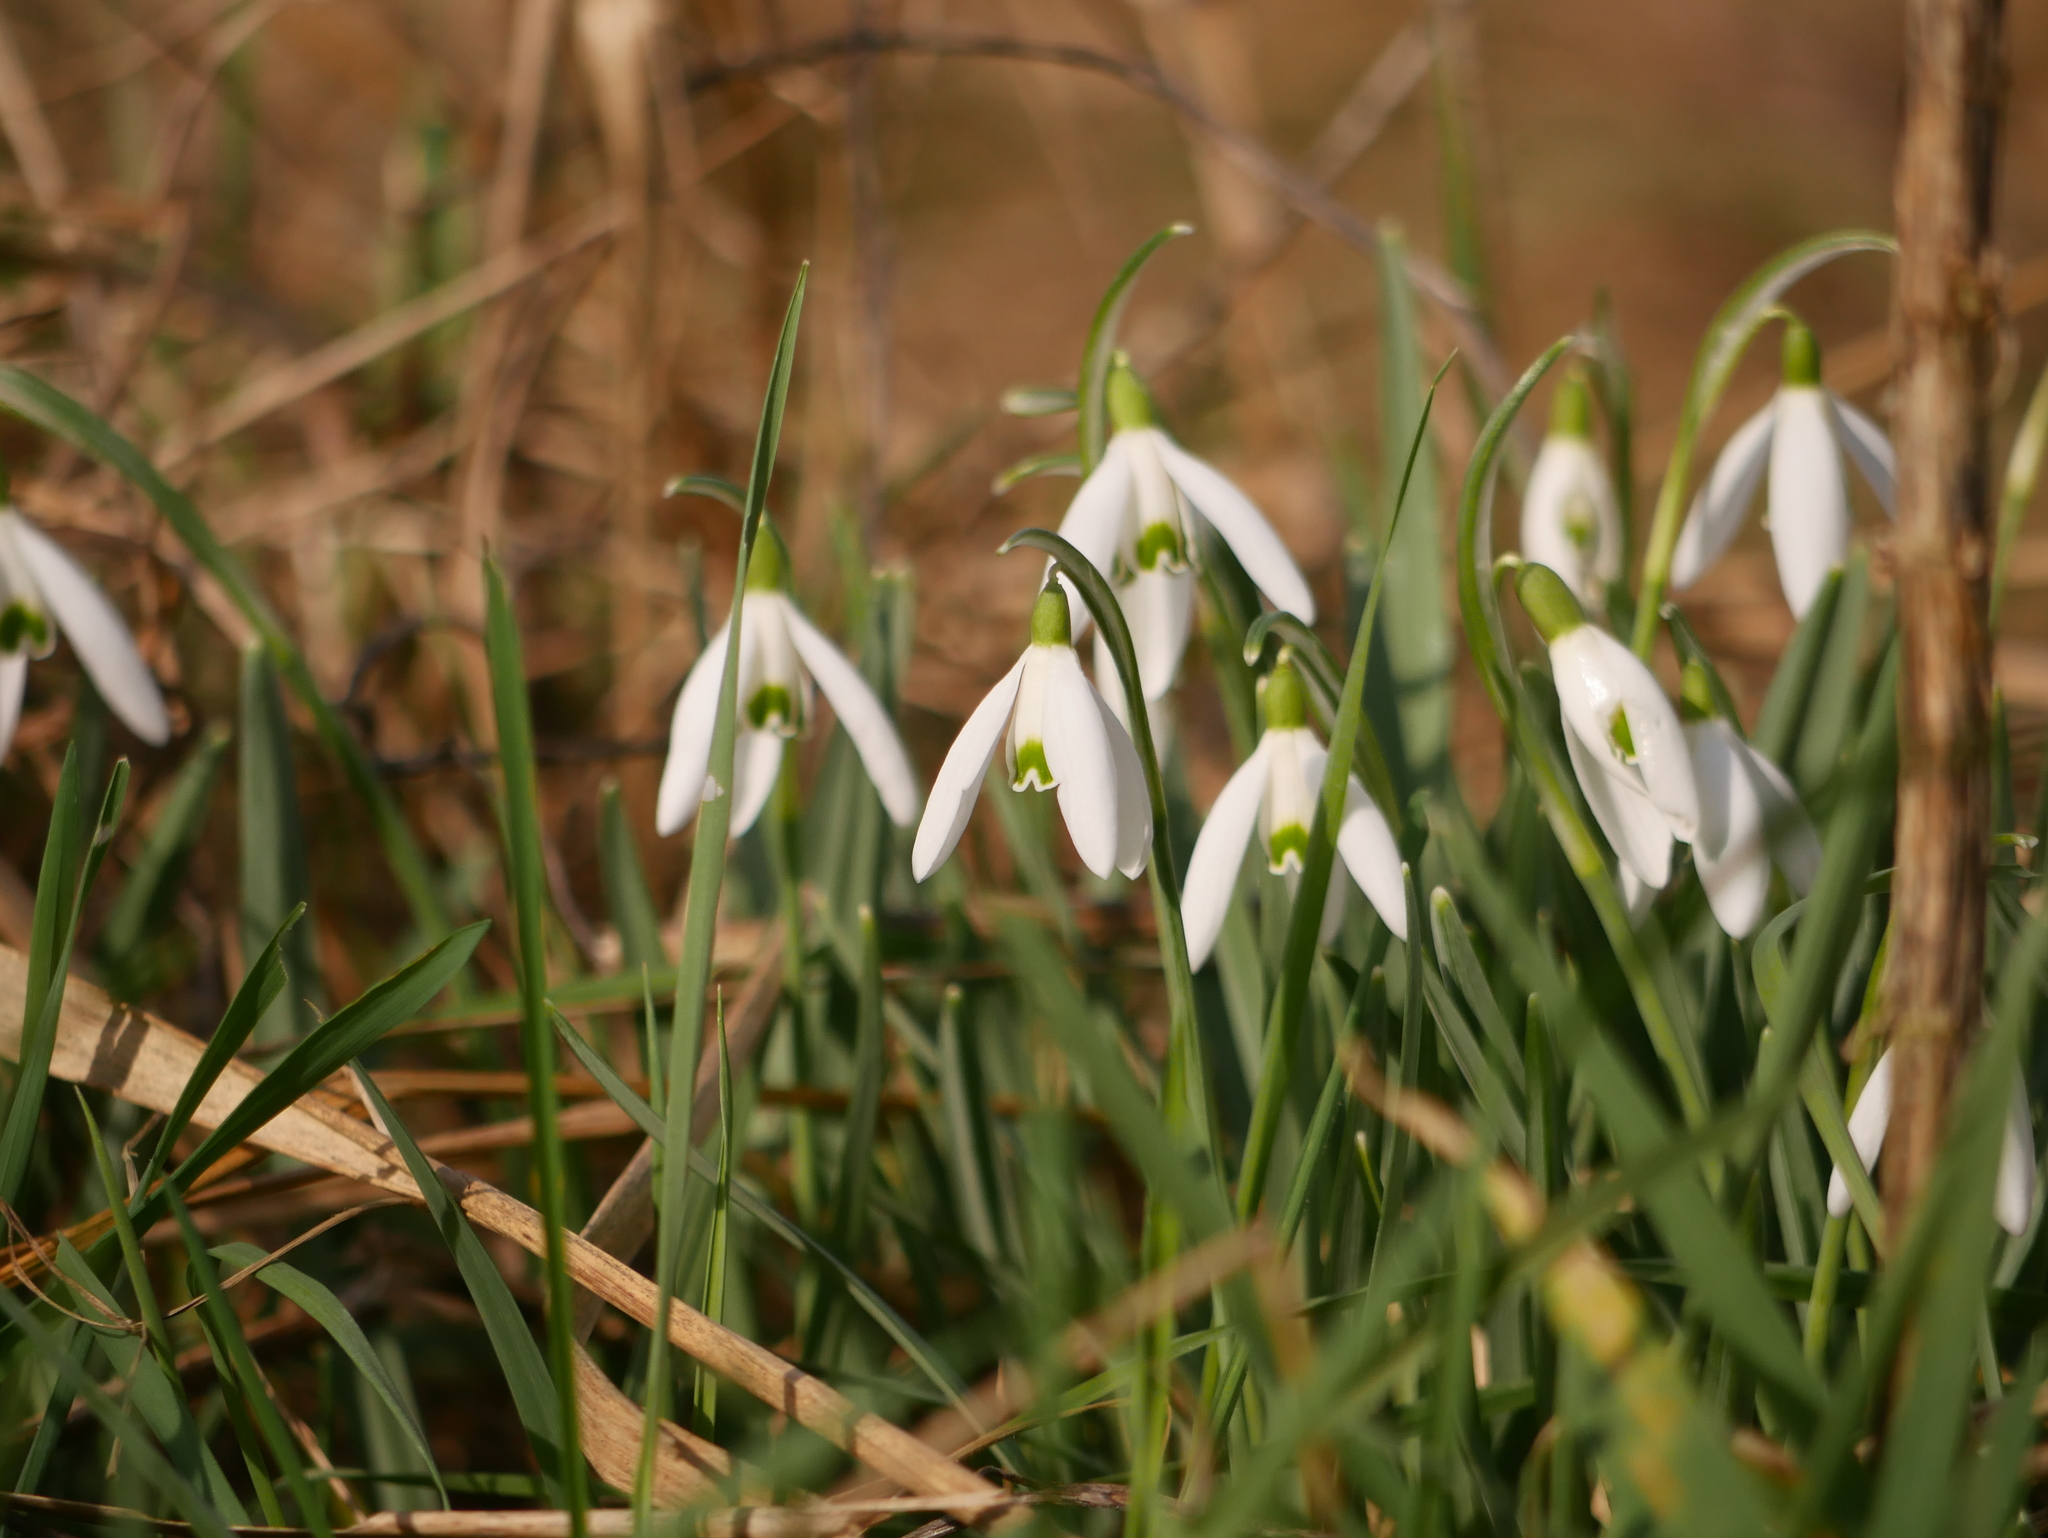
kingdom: Plantae
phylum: Tracheophyta
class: Liliopsida
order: Asparagales
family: Amaryllidaceae
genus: Galanthus
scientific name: Galanthus nivalis
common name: Snowdrop
